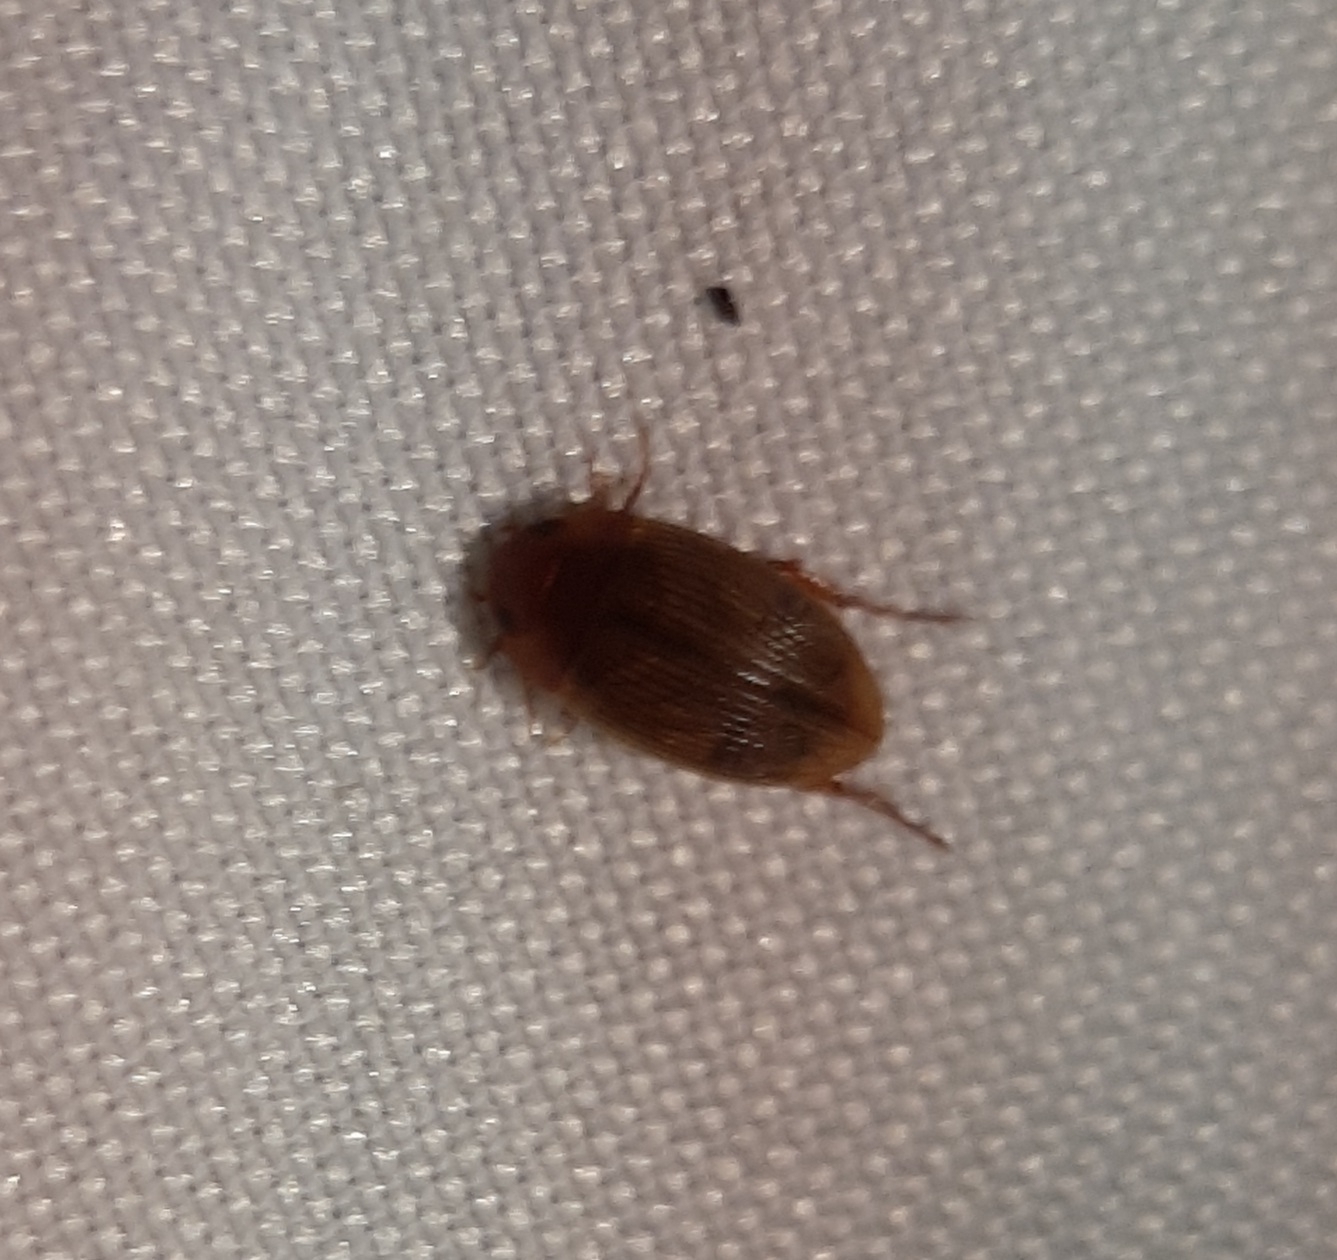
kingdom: Animalia
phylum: Arthropoda
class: Insecta
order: Coleoptera
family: Dytiscidae
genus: Copelatus
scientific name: Copelatus
